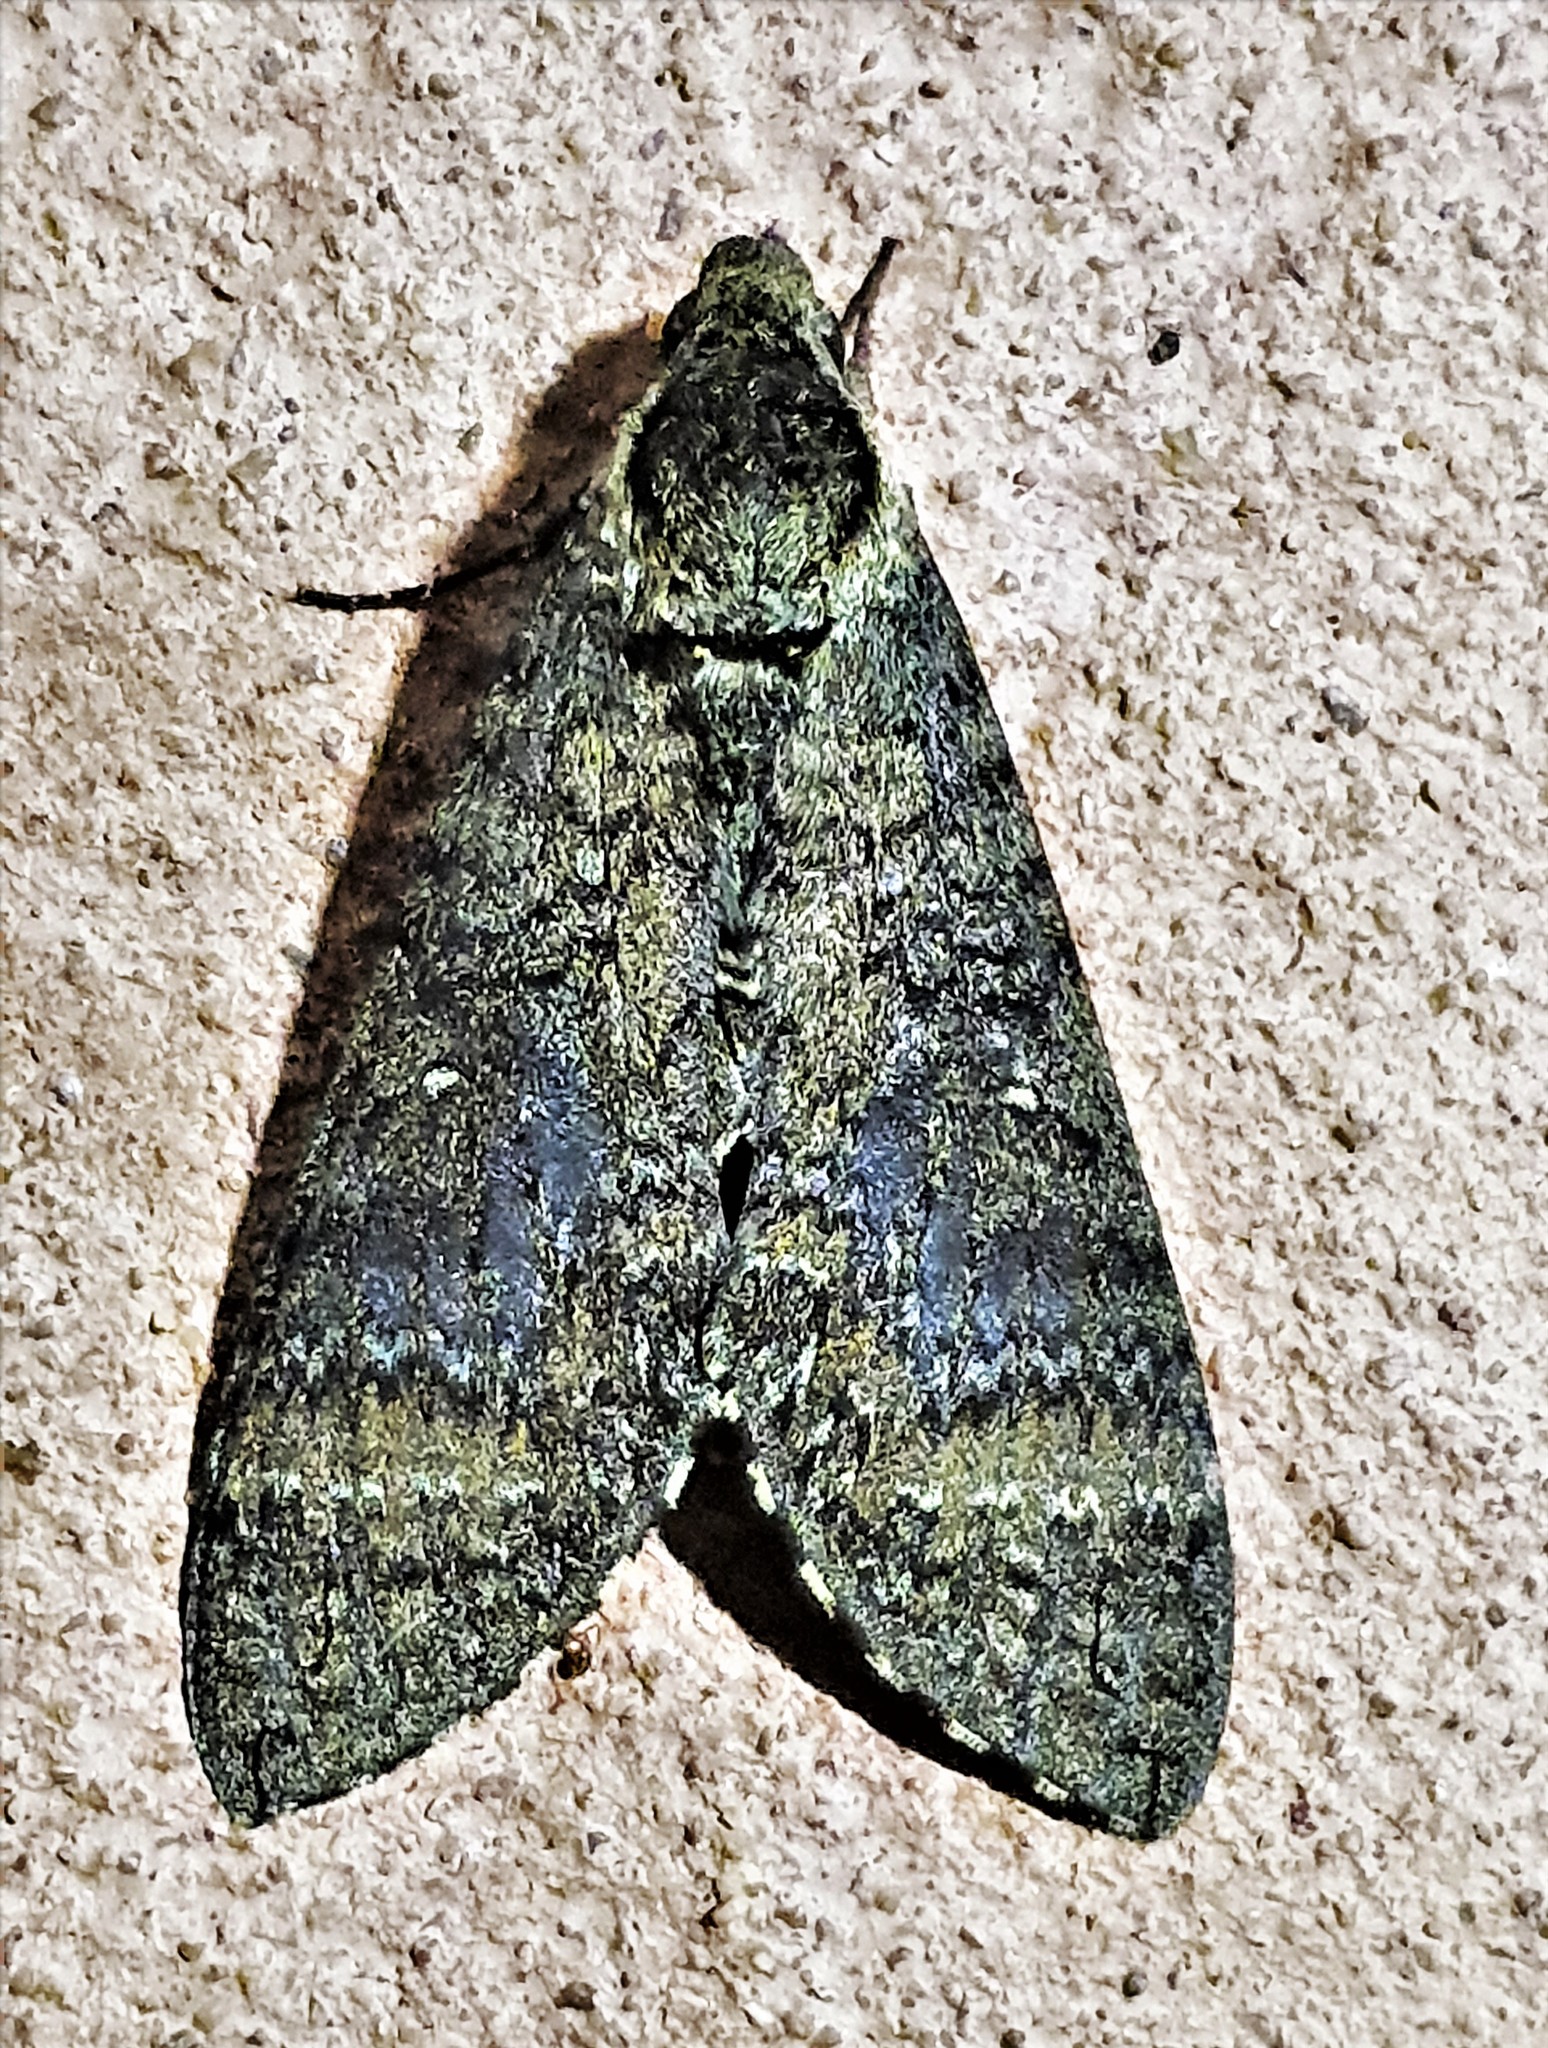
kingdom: Animalia
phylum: Arthropoda
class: Insecta
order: Lepidoptera
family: Sphingidae
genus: Manduca
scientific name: Manduca diffissa
